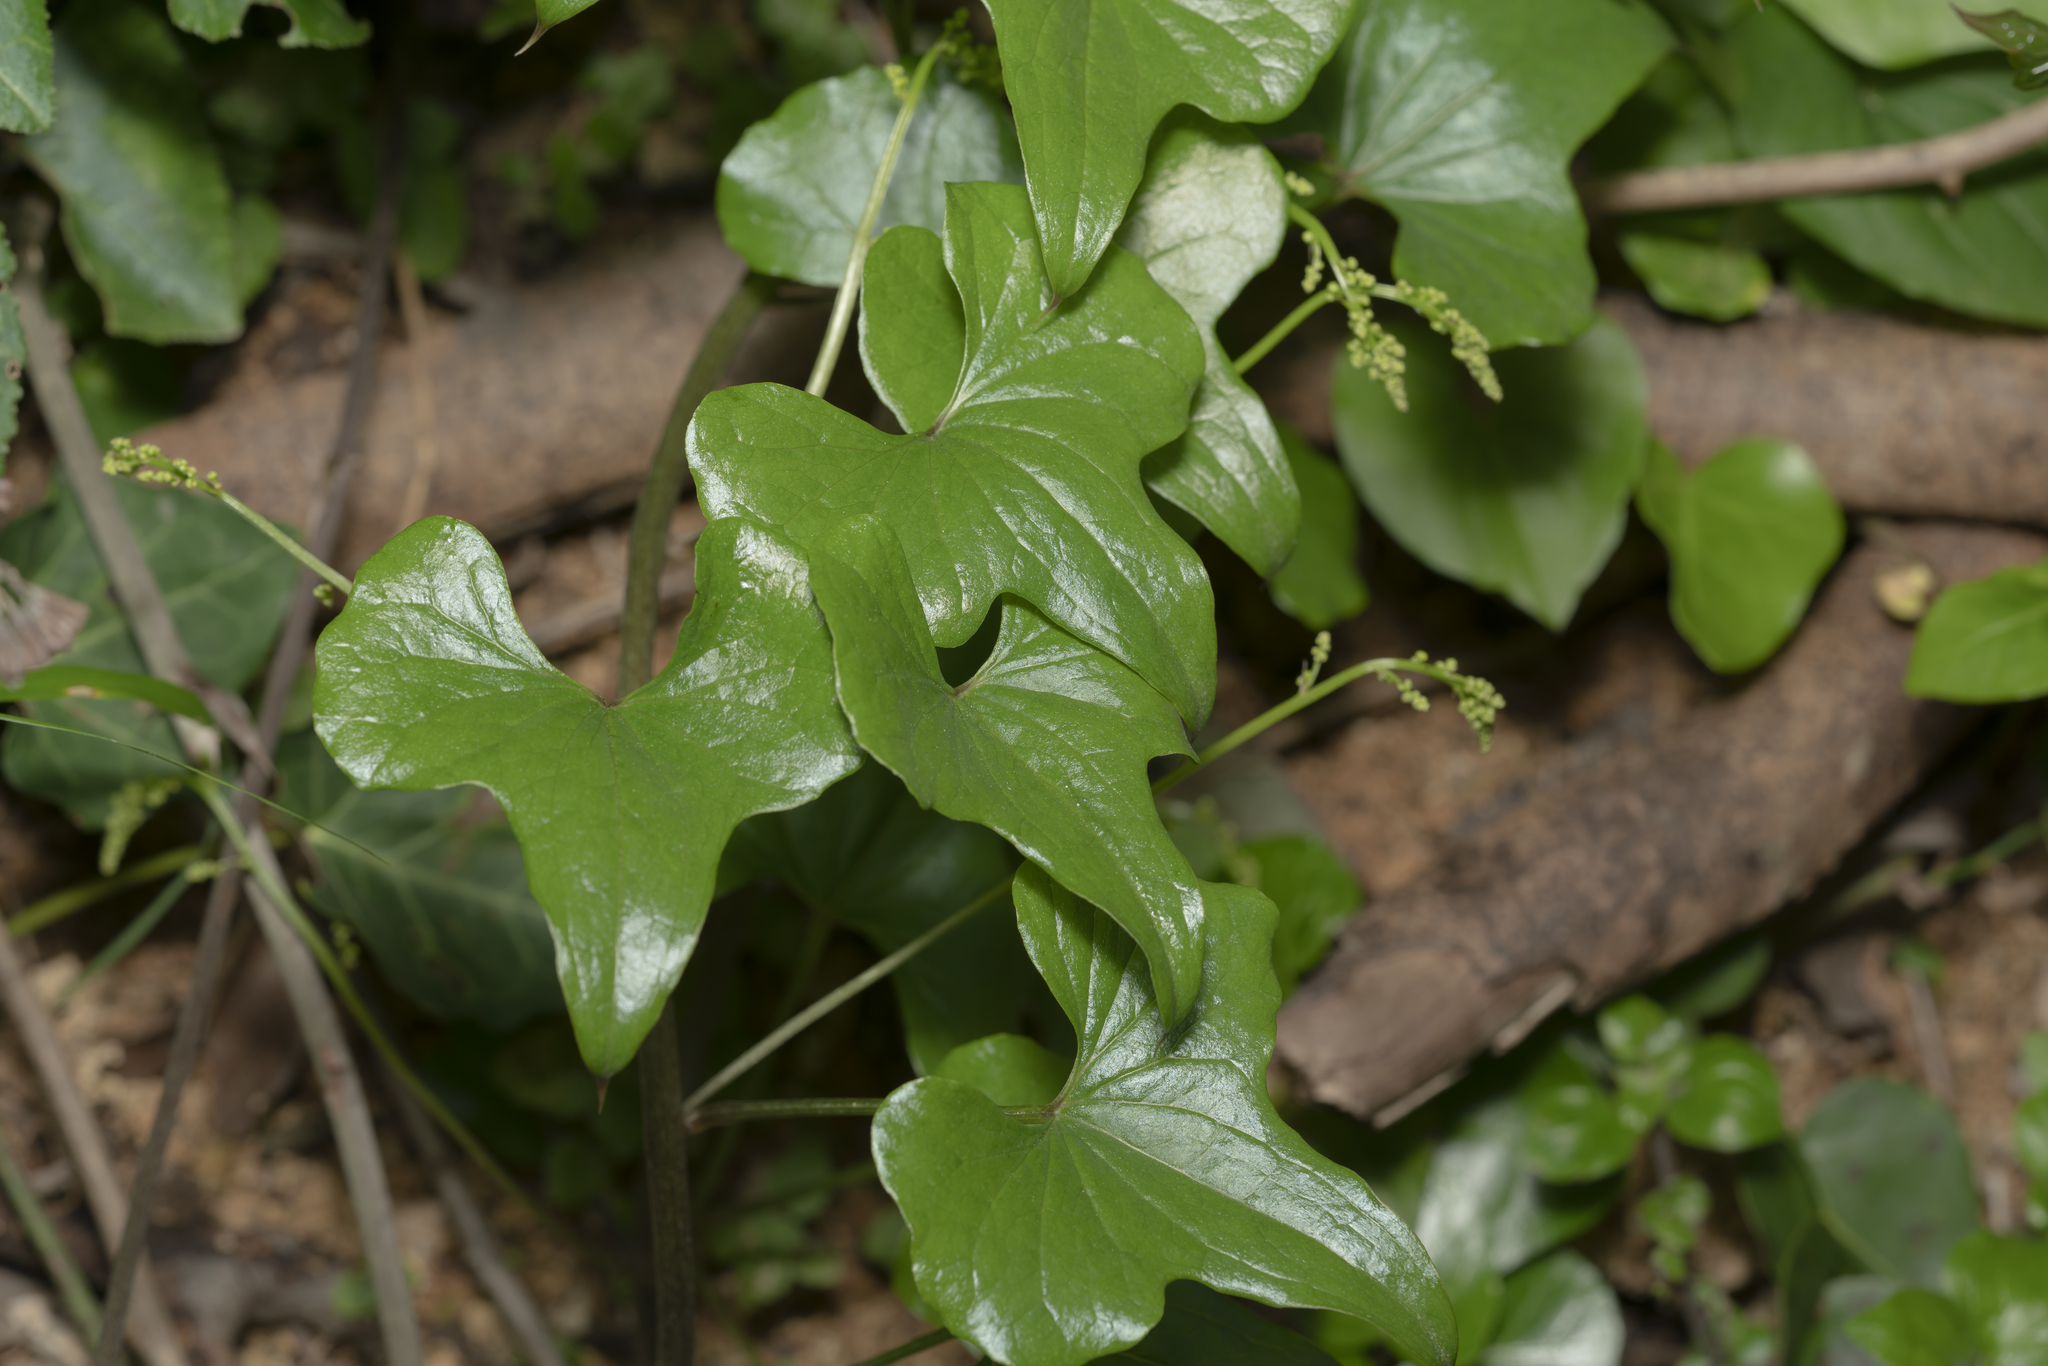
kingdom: Plantae
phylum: Tracheophyta
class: Liliopsida
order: Dioscoreales
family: Dioscoreaceae
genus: Dioscorea
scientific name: Dioscorea communis
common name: Black-bindweed
